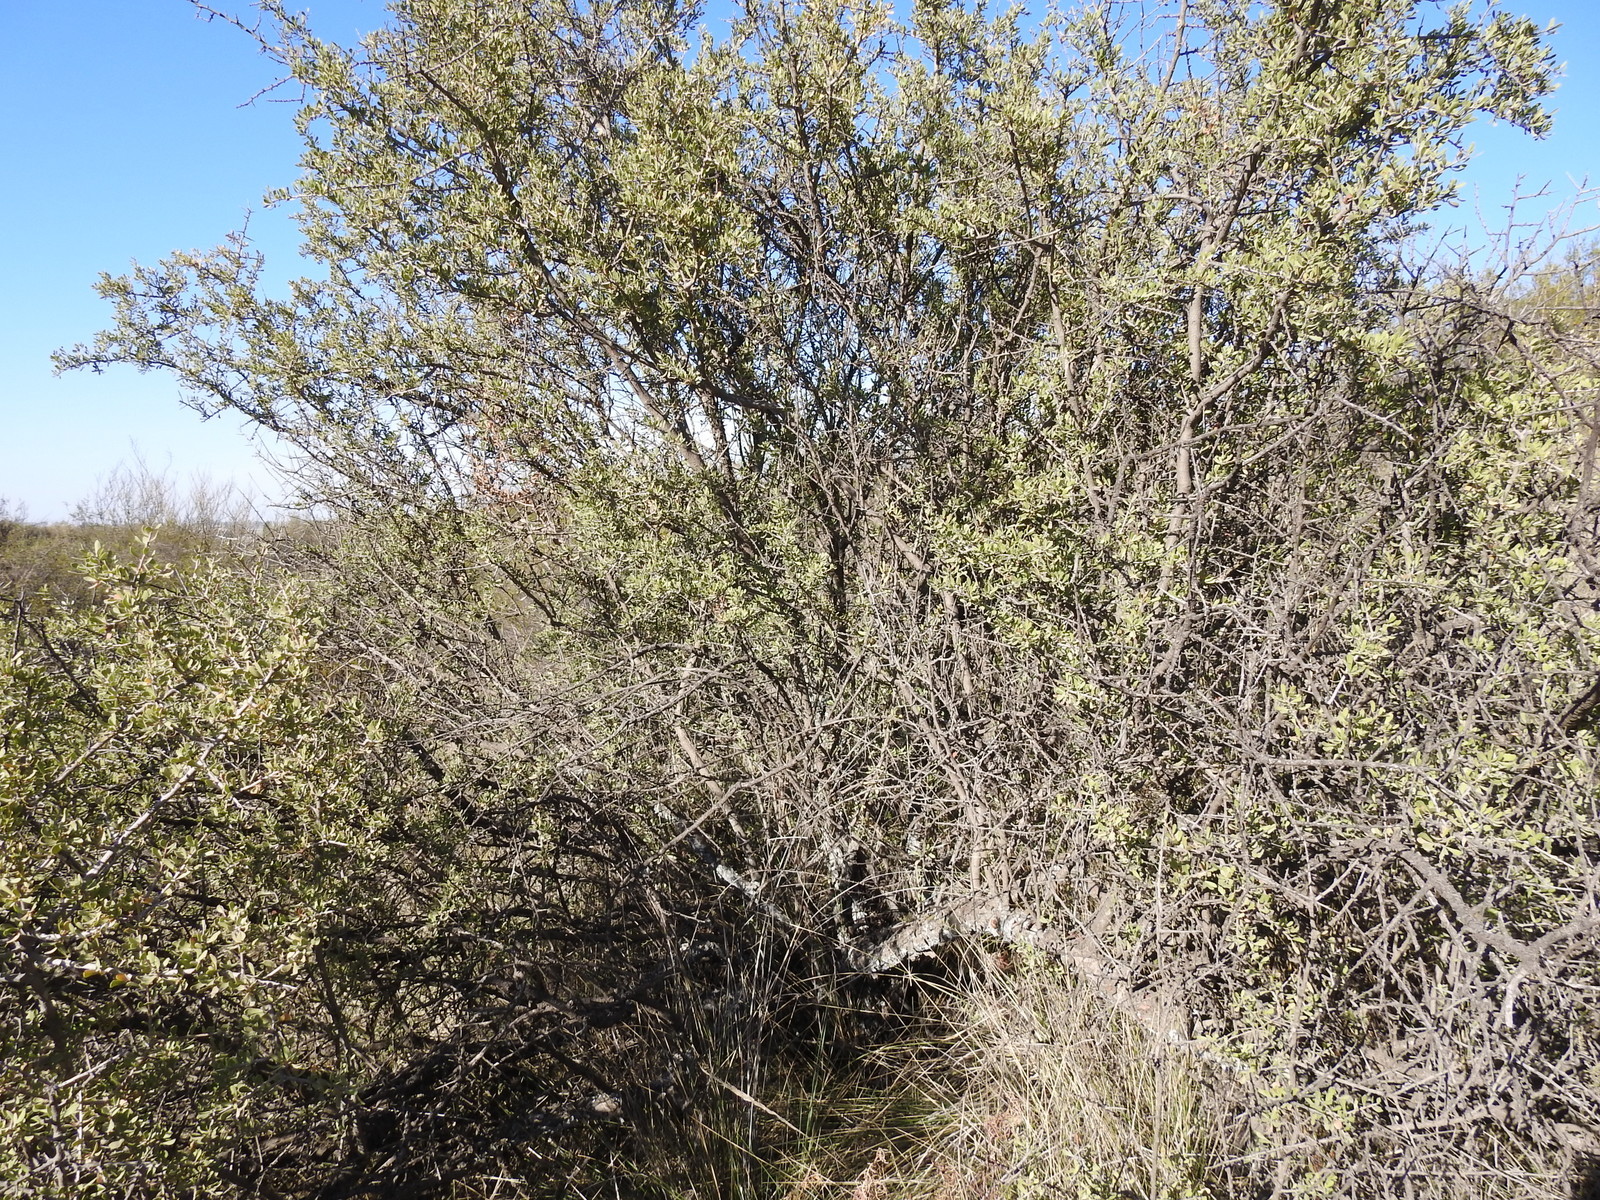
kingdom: Plantae
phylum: Tracheophyta
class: Magnoliopsida
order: Sapindales
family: Anacardiaceae
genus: Schinus
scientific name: Schinus polygama
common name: Hardee peppertree
